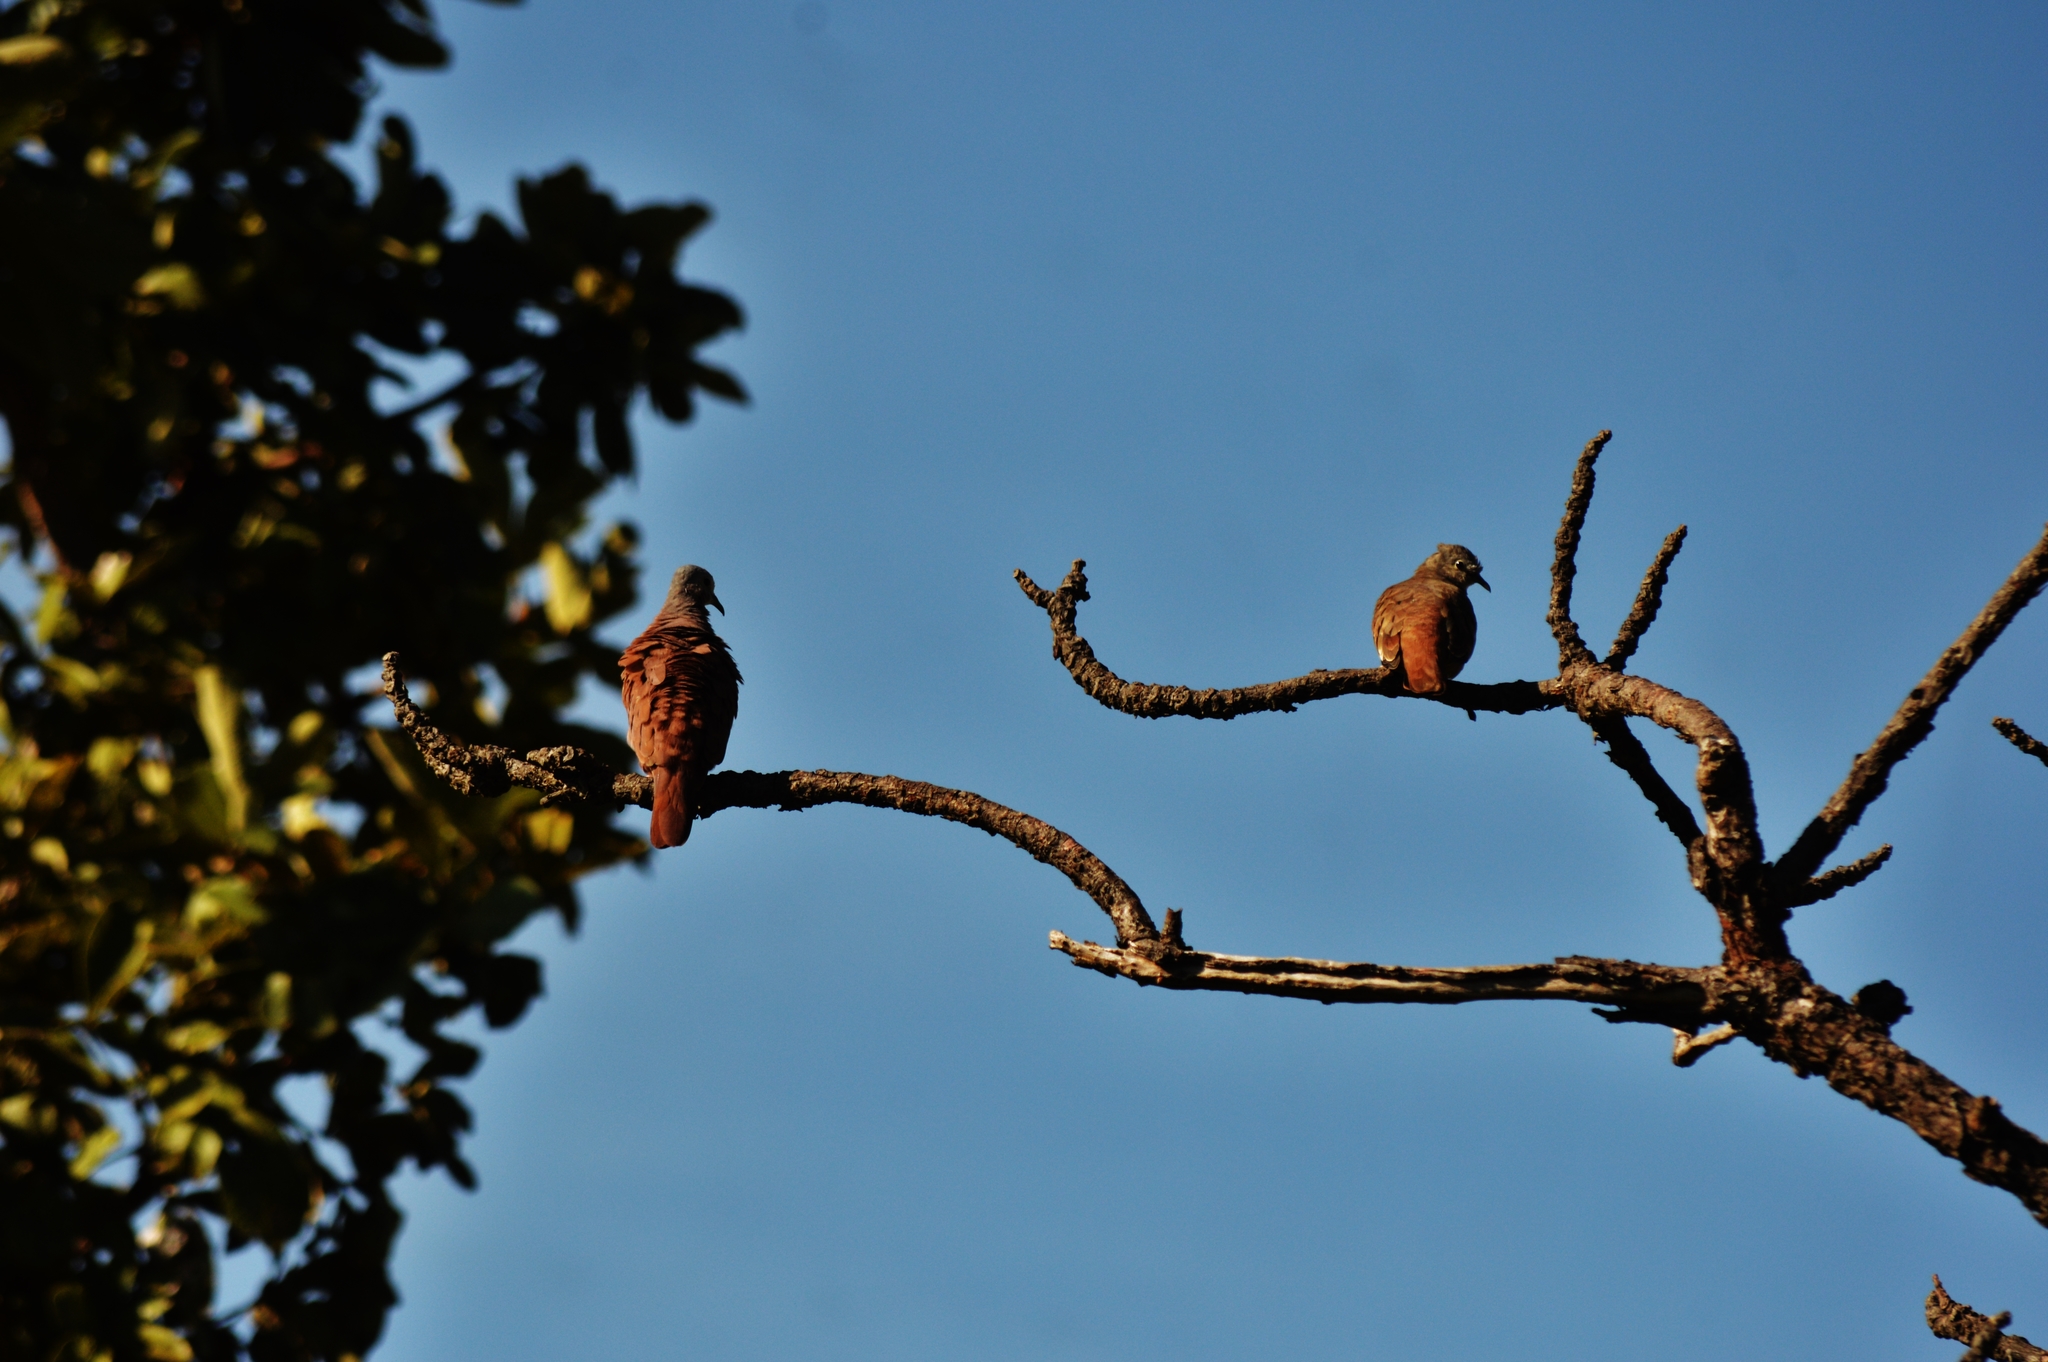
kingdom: Animalia
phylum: Chordata
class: Aves
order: Columbiformes
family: Columbidae
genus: Columbina
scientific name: Columbina talpacoti
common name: Ruddy ground dove
